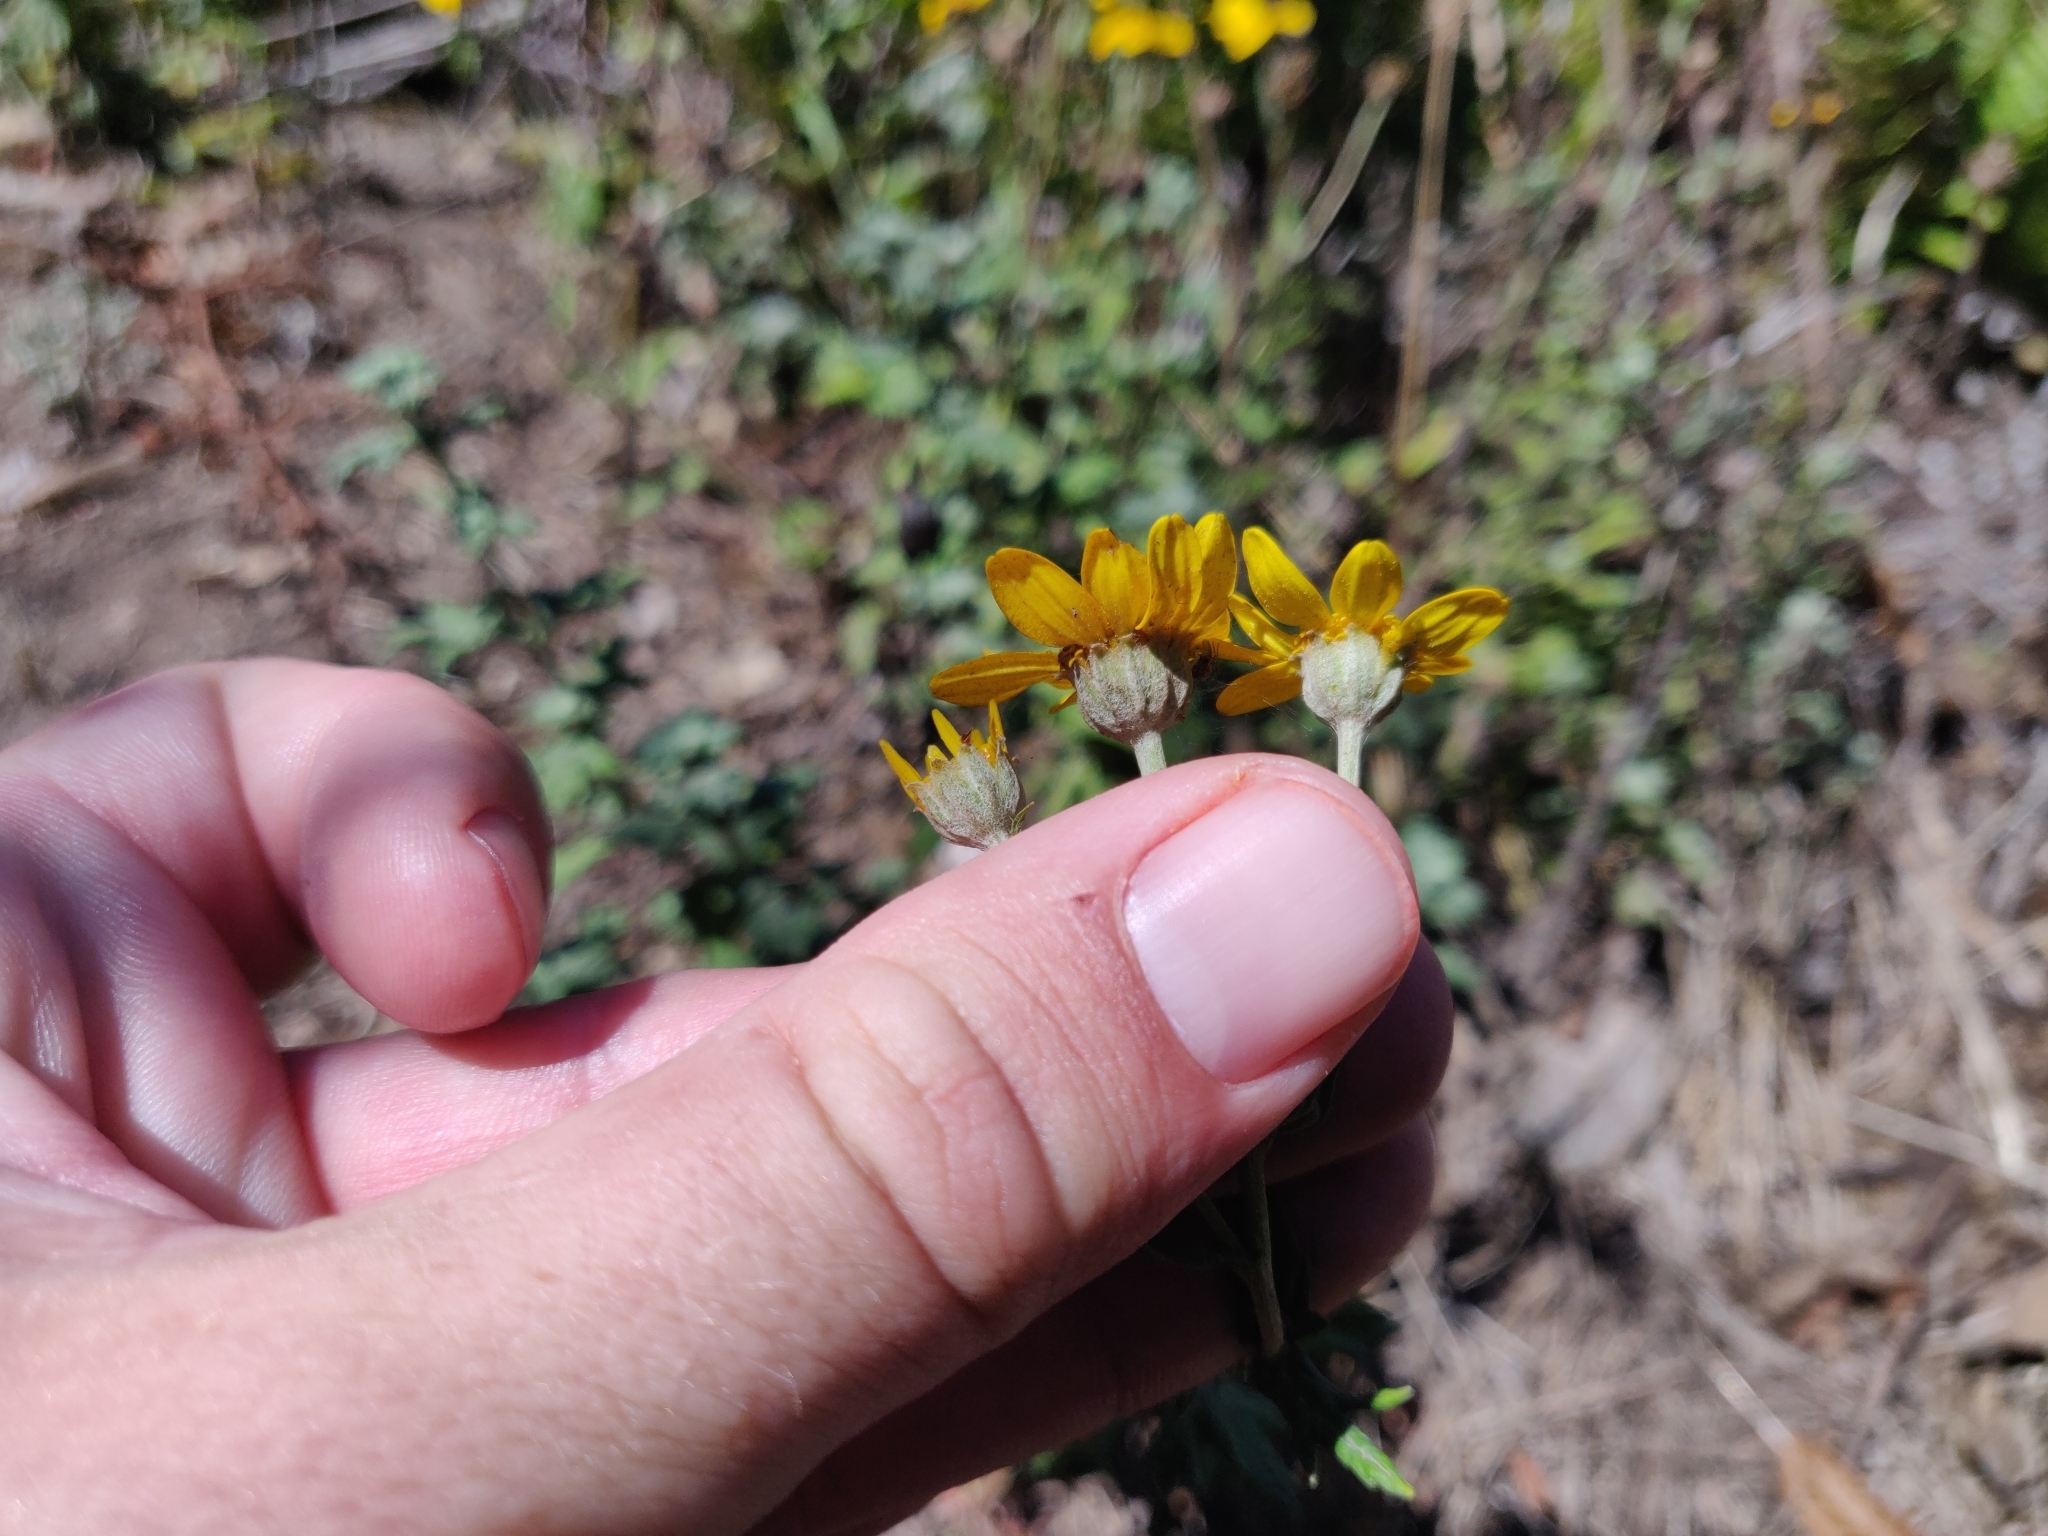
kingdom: Plantae
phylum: Tracheophyta
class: Magnoliopsida
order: Asterales
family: Asteraceae
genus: Eriophyllum
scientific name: Eriophyllum lanatum
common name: Common woolly-sunflower
